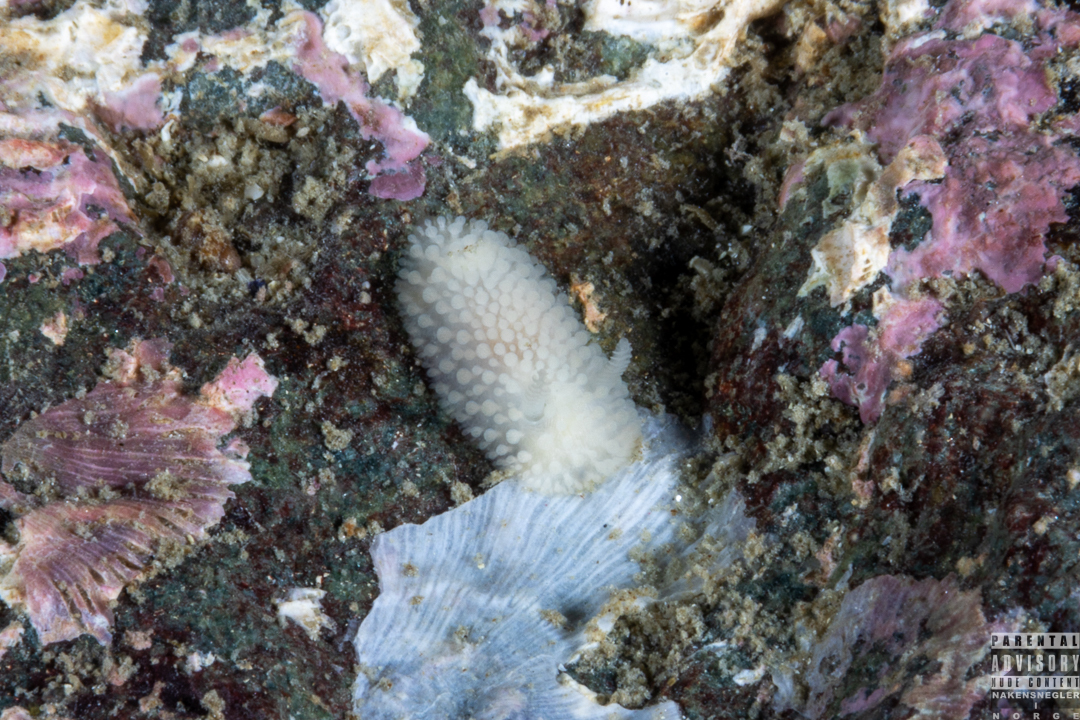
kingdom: Animalia
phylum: Mollusca
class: Gastropoda
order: Nudibranchia
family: Onchidorididae
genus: Onchidoris
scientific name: Onchidoris muricata
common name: Rough doris
